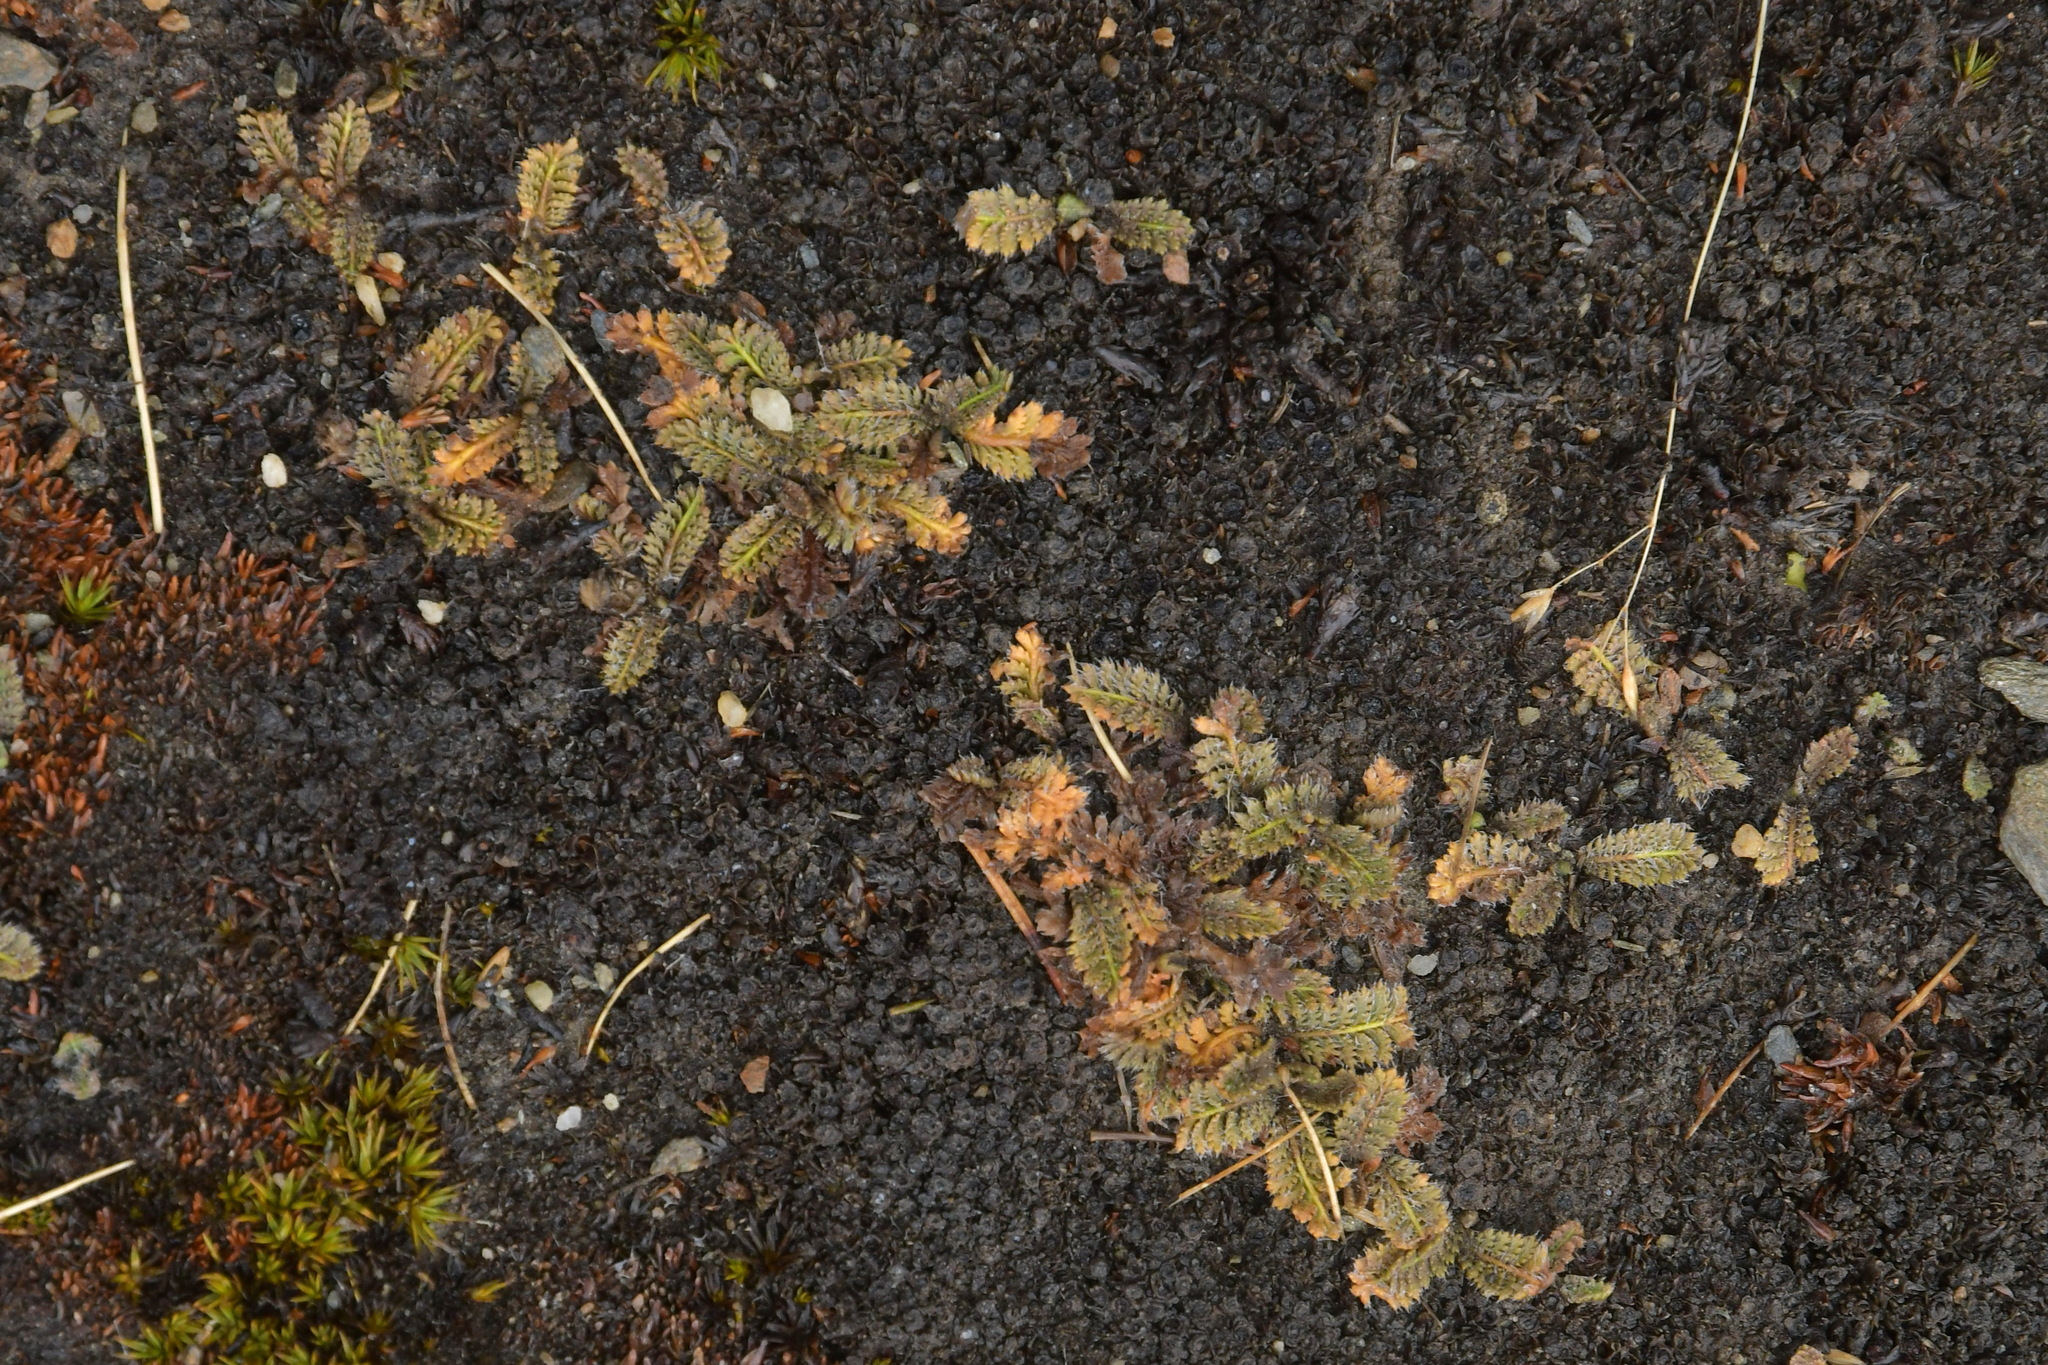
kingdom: Plantae
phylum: Tracheophyta
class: Magnoliopsida
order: Asterales
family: Asteraceae
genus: Leptinella
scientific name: Leptinella squalida
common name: New zealand brass-buttons
